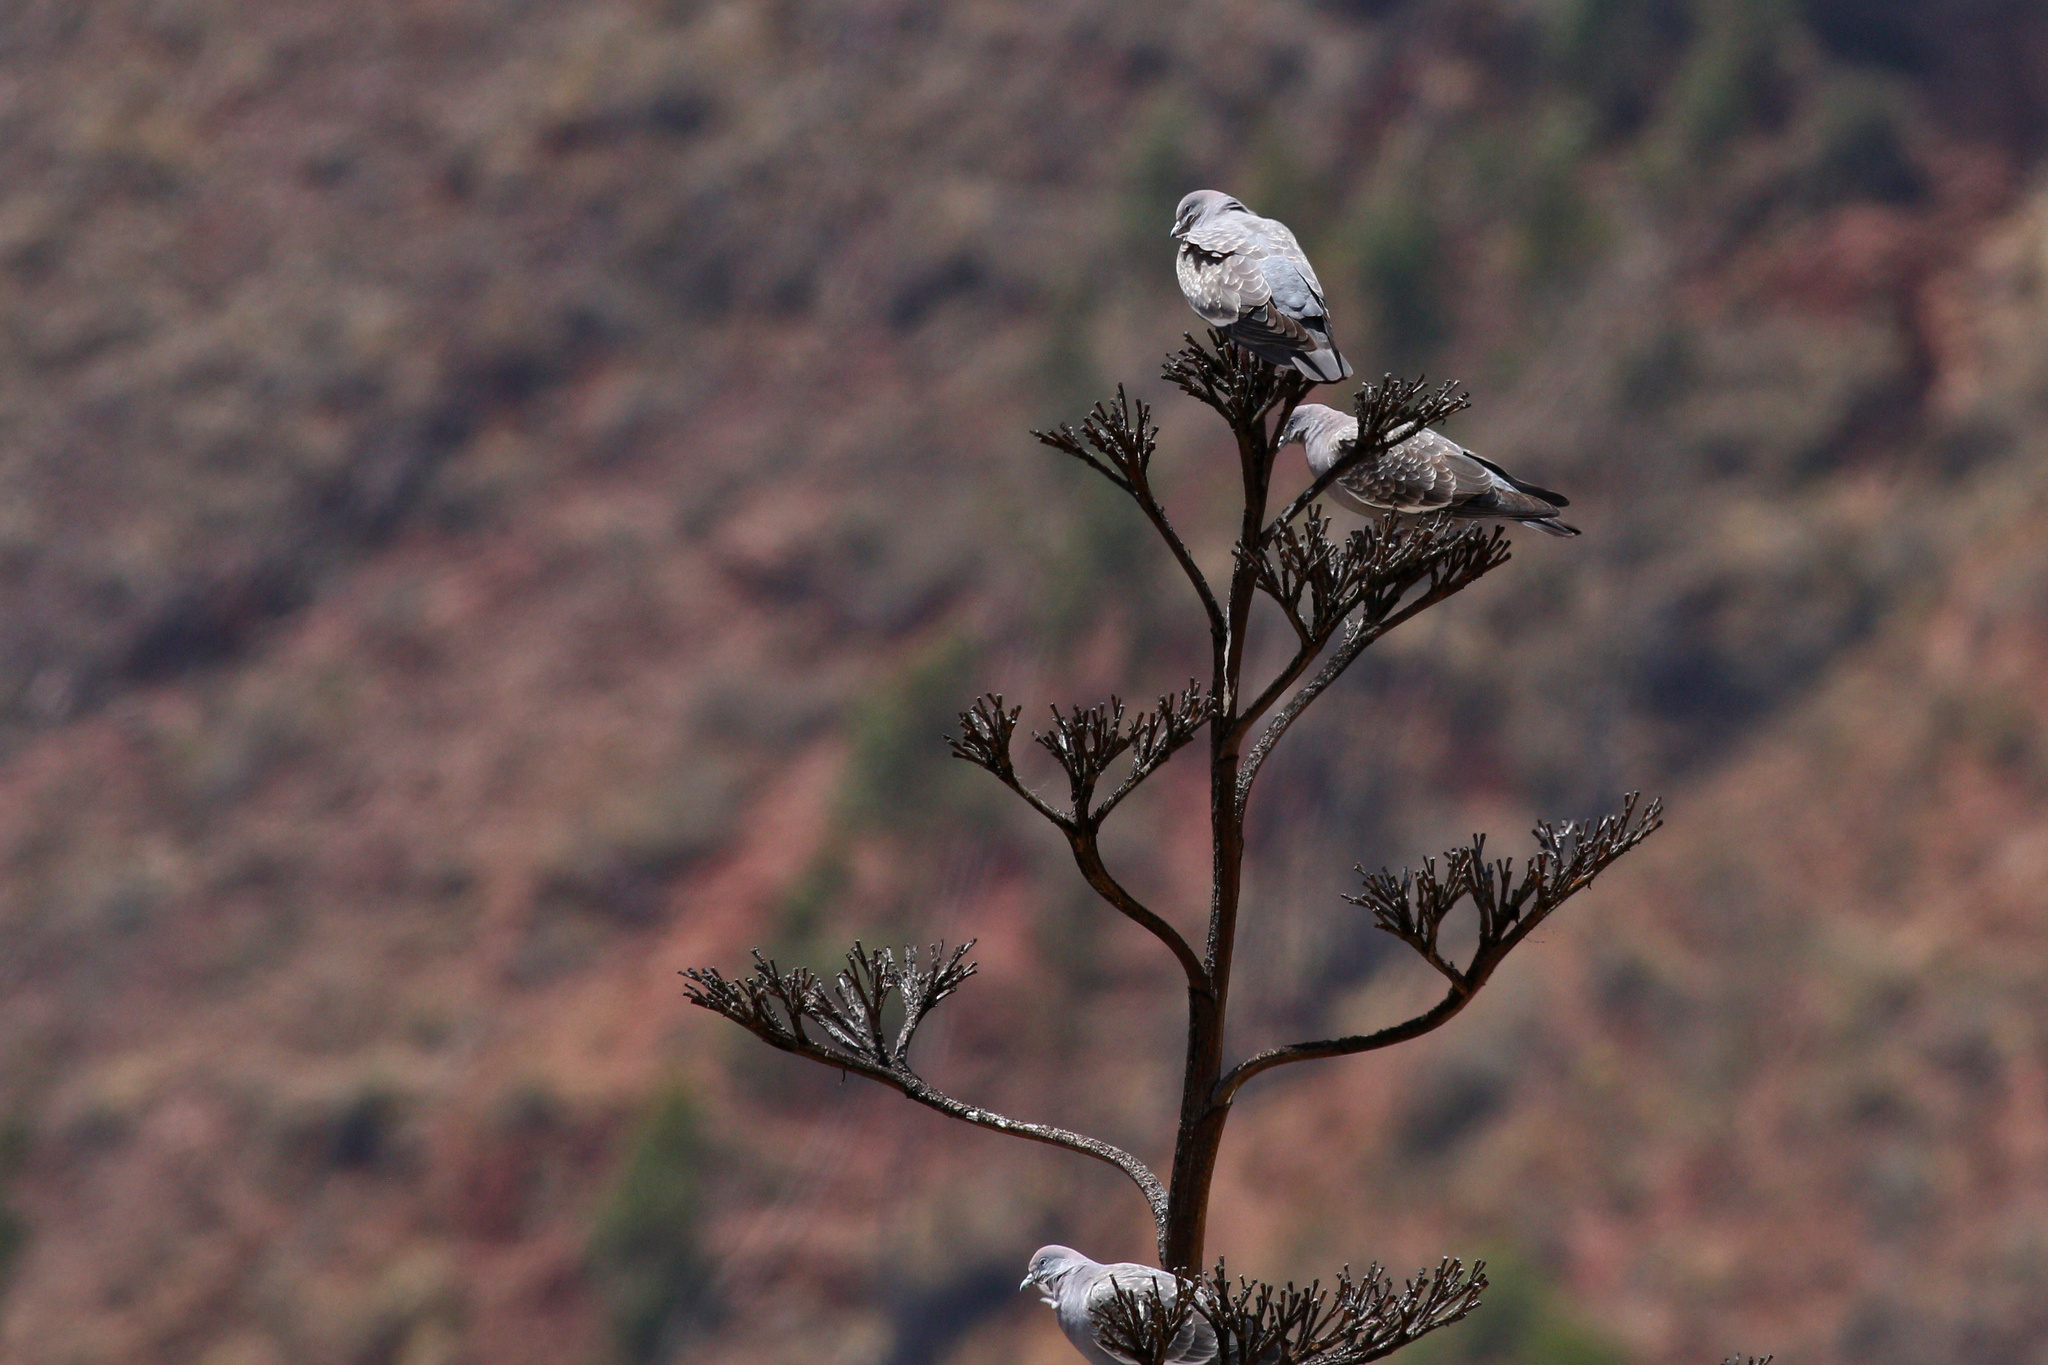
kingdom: Animalia
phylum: Chordata
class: Aves
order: Columbiformes
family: Columbidae
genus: Patagioenas
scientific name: Patagioenas maculosa
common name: Spot-winged pigeon
